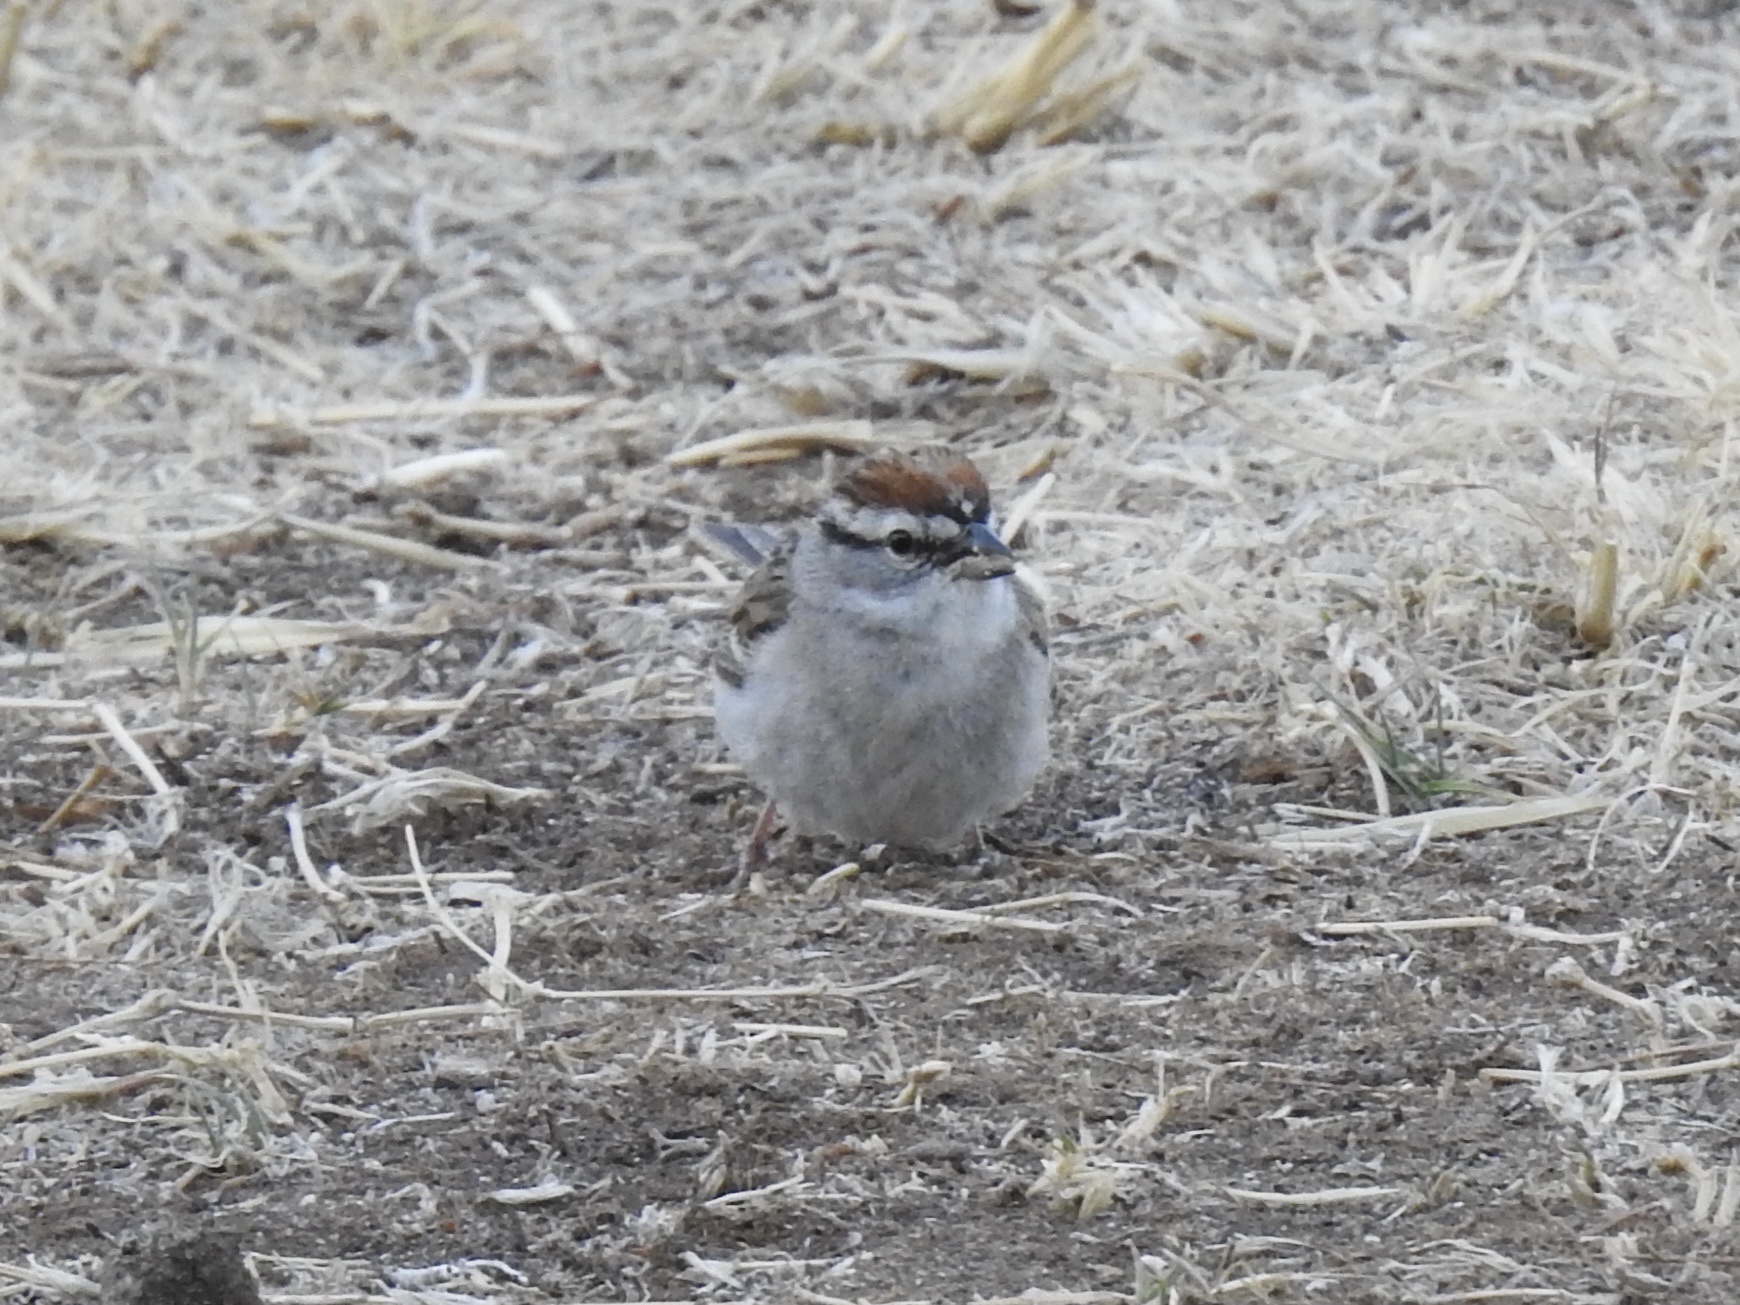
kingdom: Animalia
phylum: Chordata
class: Aves
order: Passeriformes
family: Passerellidae
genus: Spizella
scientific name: Spizella passerina
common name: Chipping sparrow
